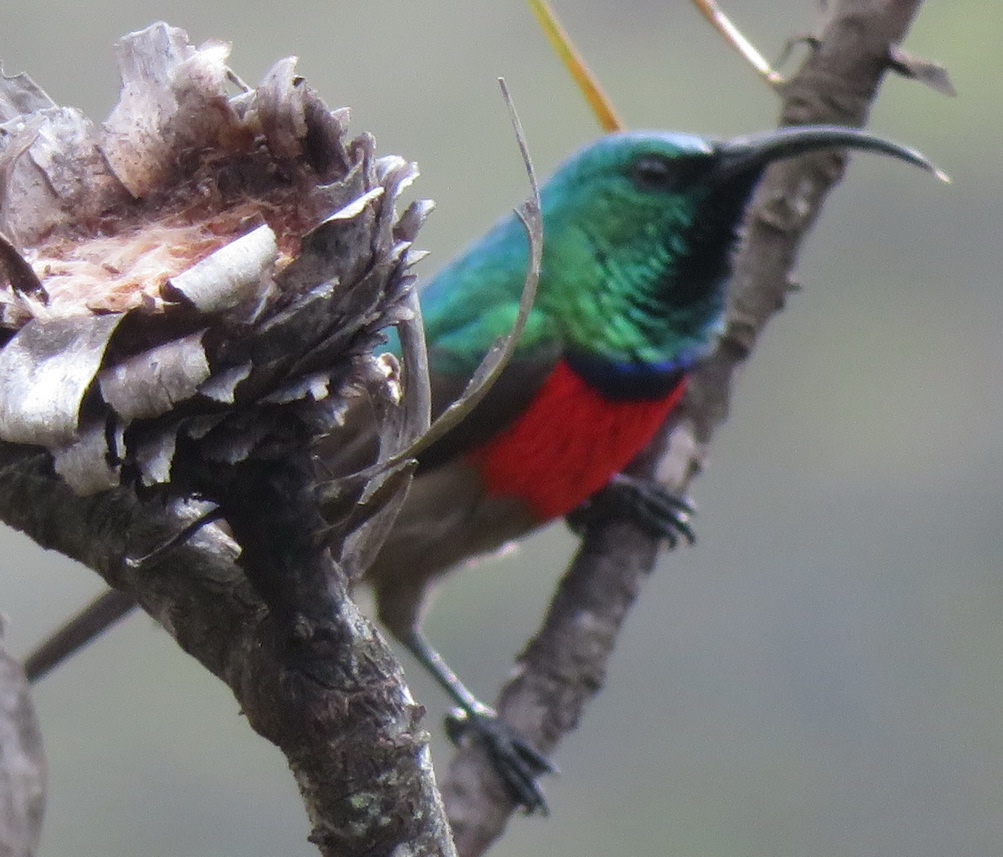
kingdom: Animalia
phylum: Chordata
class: Aves
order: Passeriformes
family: Nectariniidae
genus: Cinnyris
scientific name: Cinnyris afer
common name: Greater double-collared sunbird
